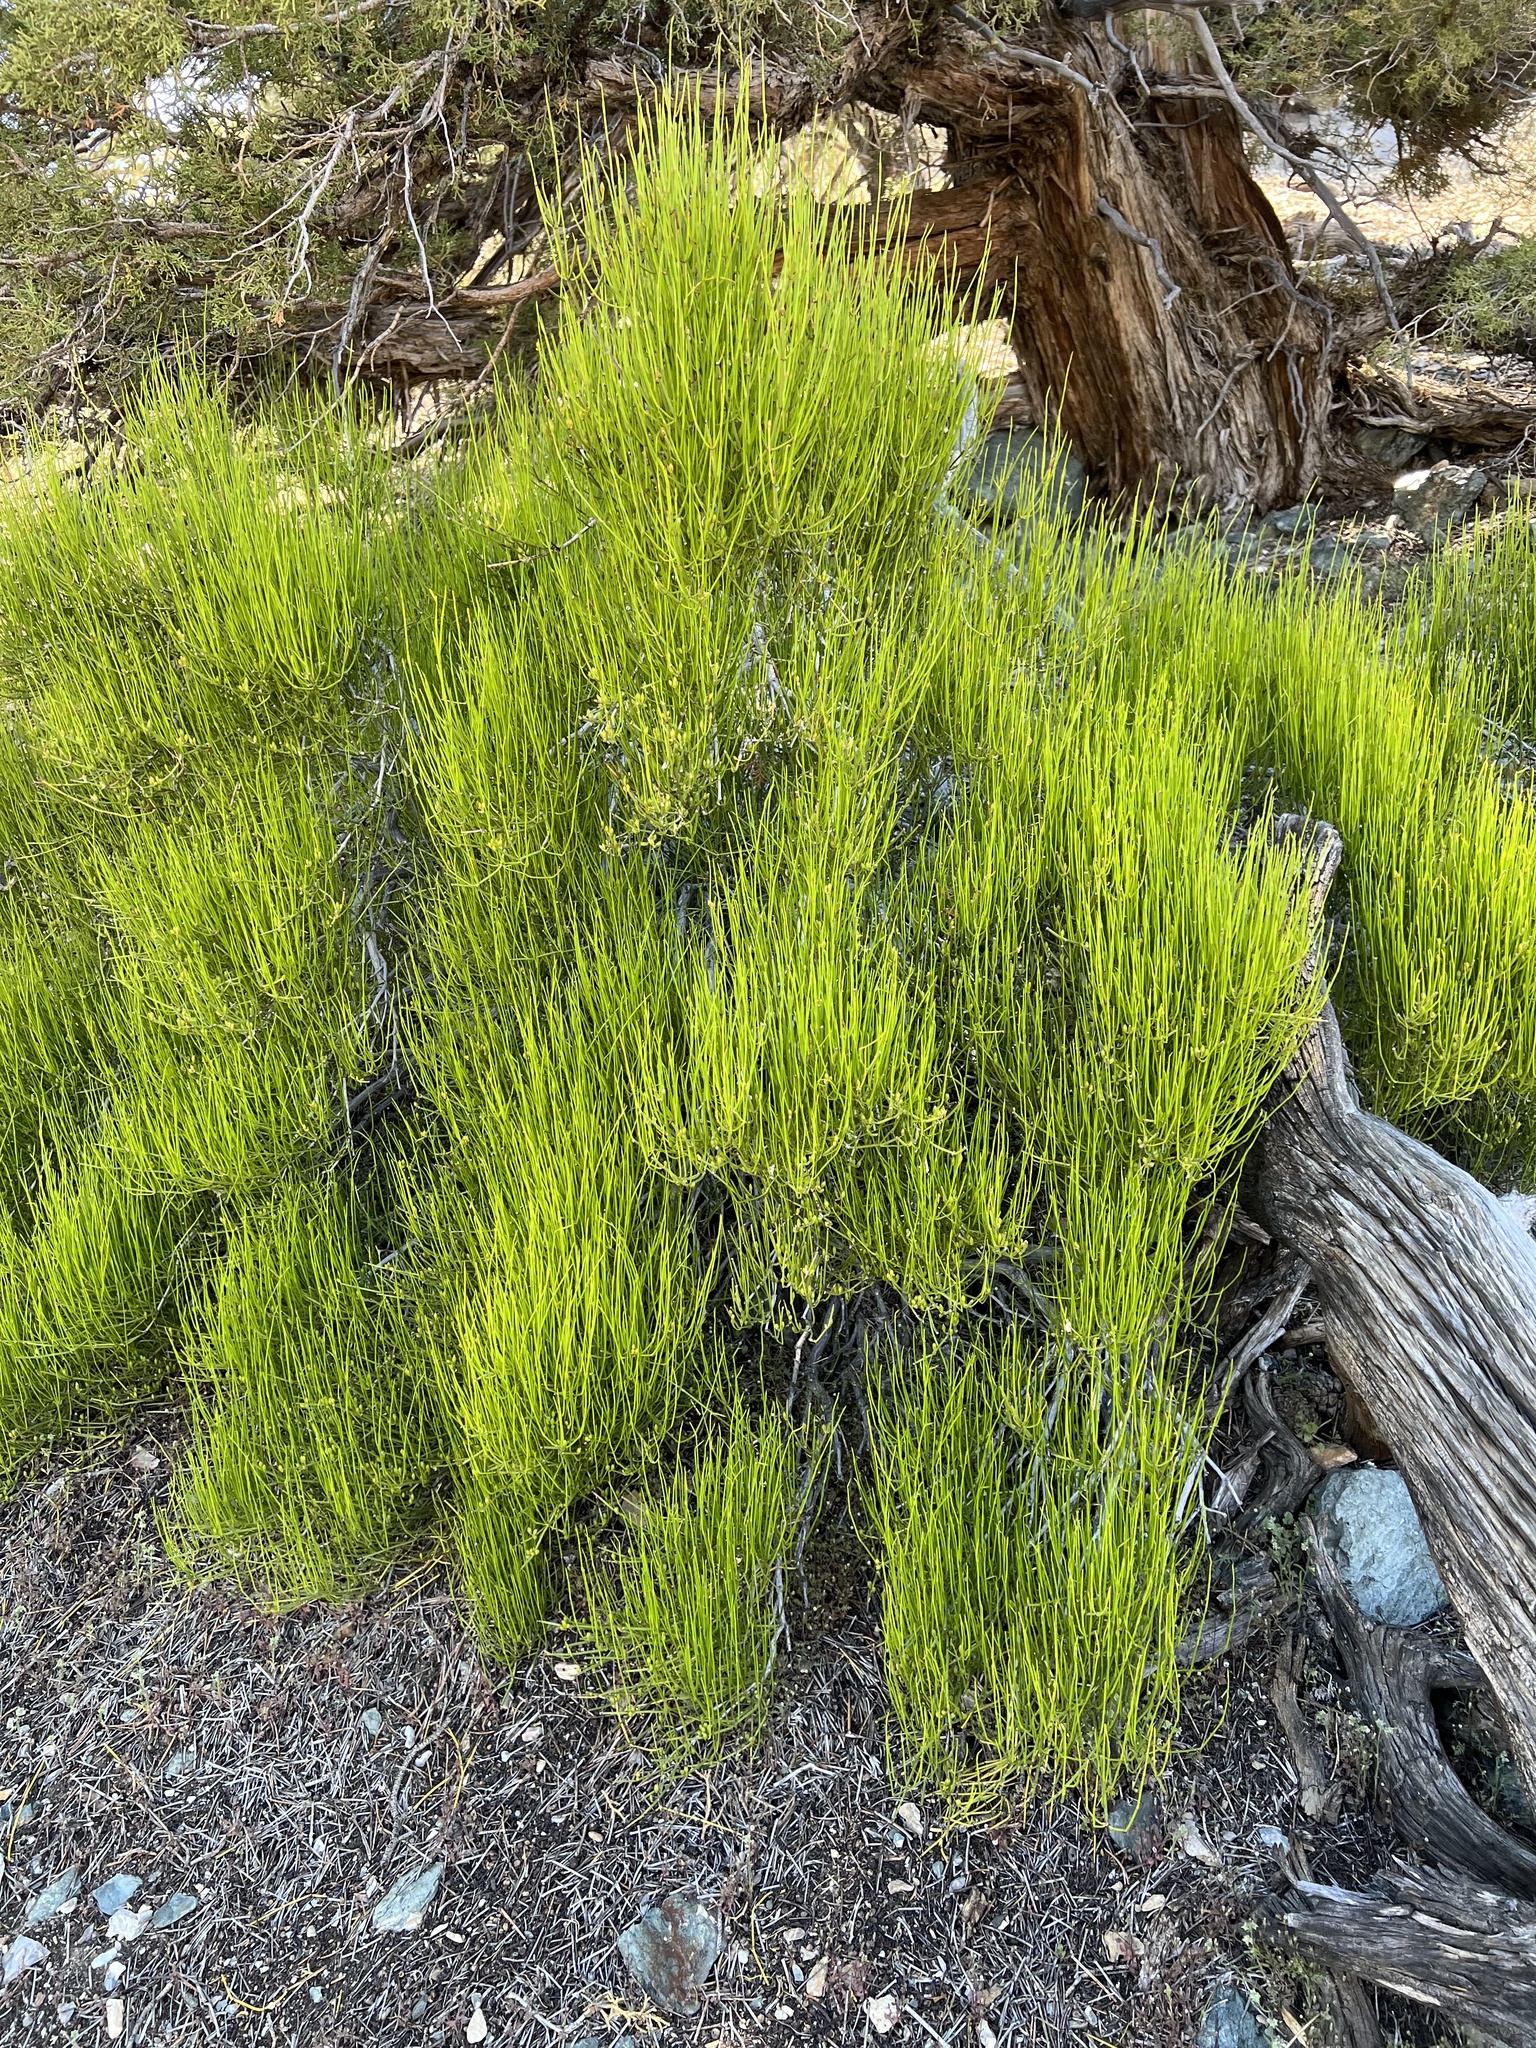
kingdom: Plantae
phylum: Tracheophyta
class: Gnetopsida
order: Ephedrales
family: Ephedraceae
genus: Ephedra
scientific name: Ephedra viridis
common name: Green ephedra
